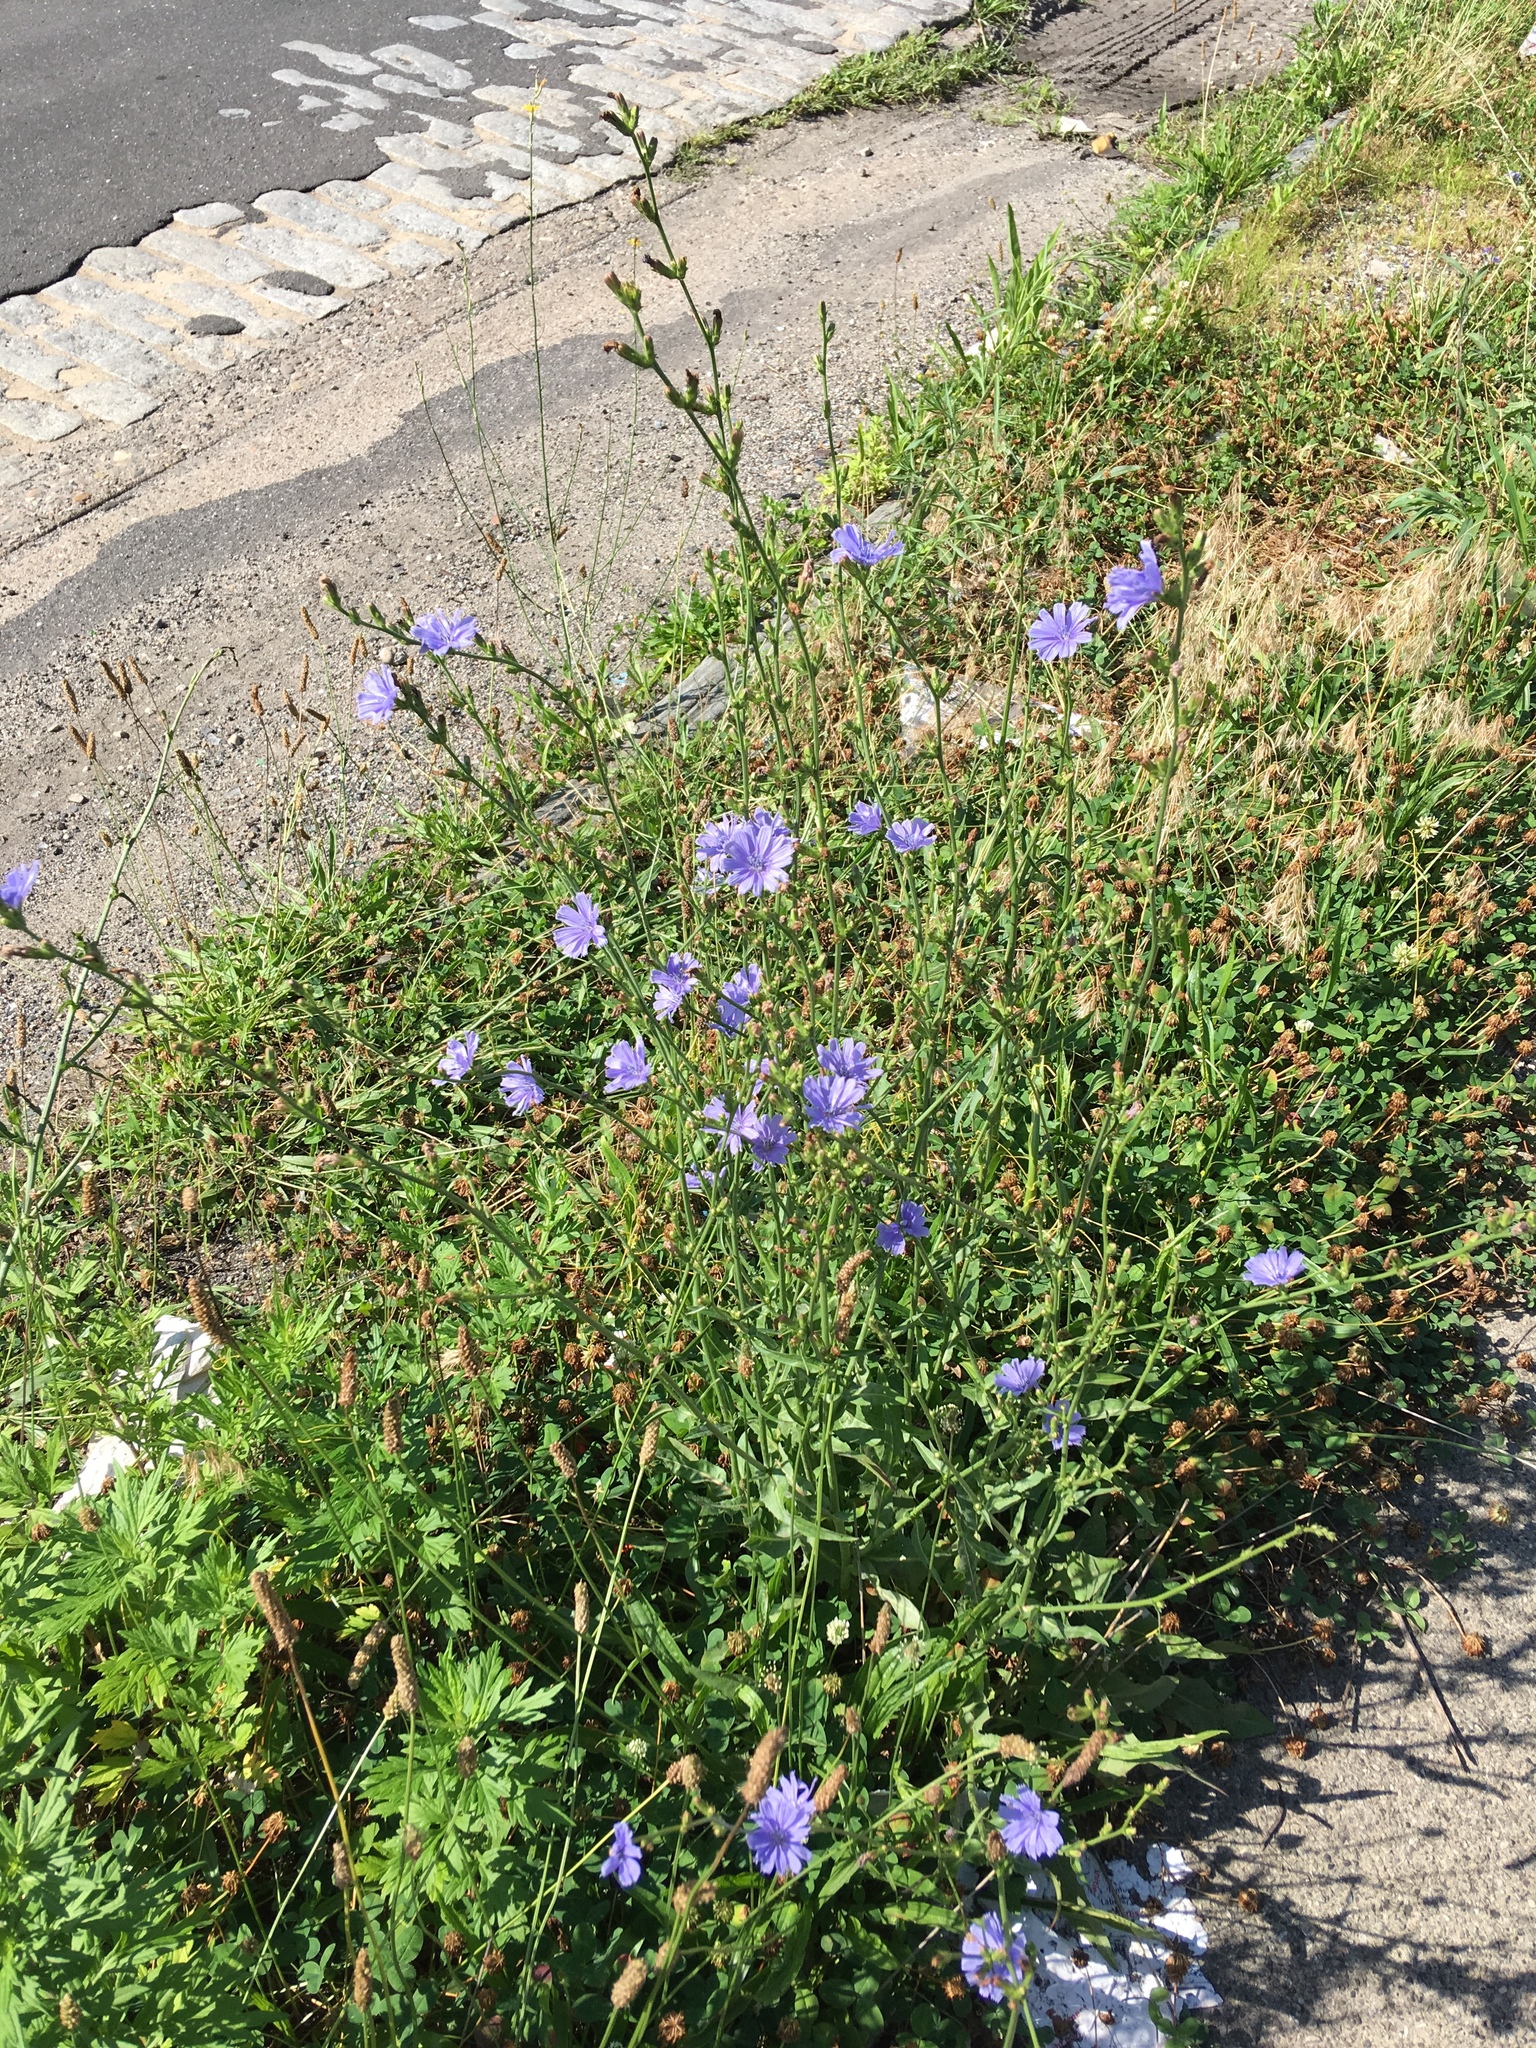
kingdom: Plantae
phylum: Tracheophyta
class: Magnoliopsida
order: Asterales
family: Asteraceae
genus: Cichorium
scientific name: Cichorium intybus
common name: Chicory
